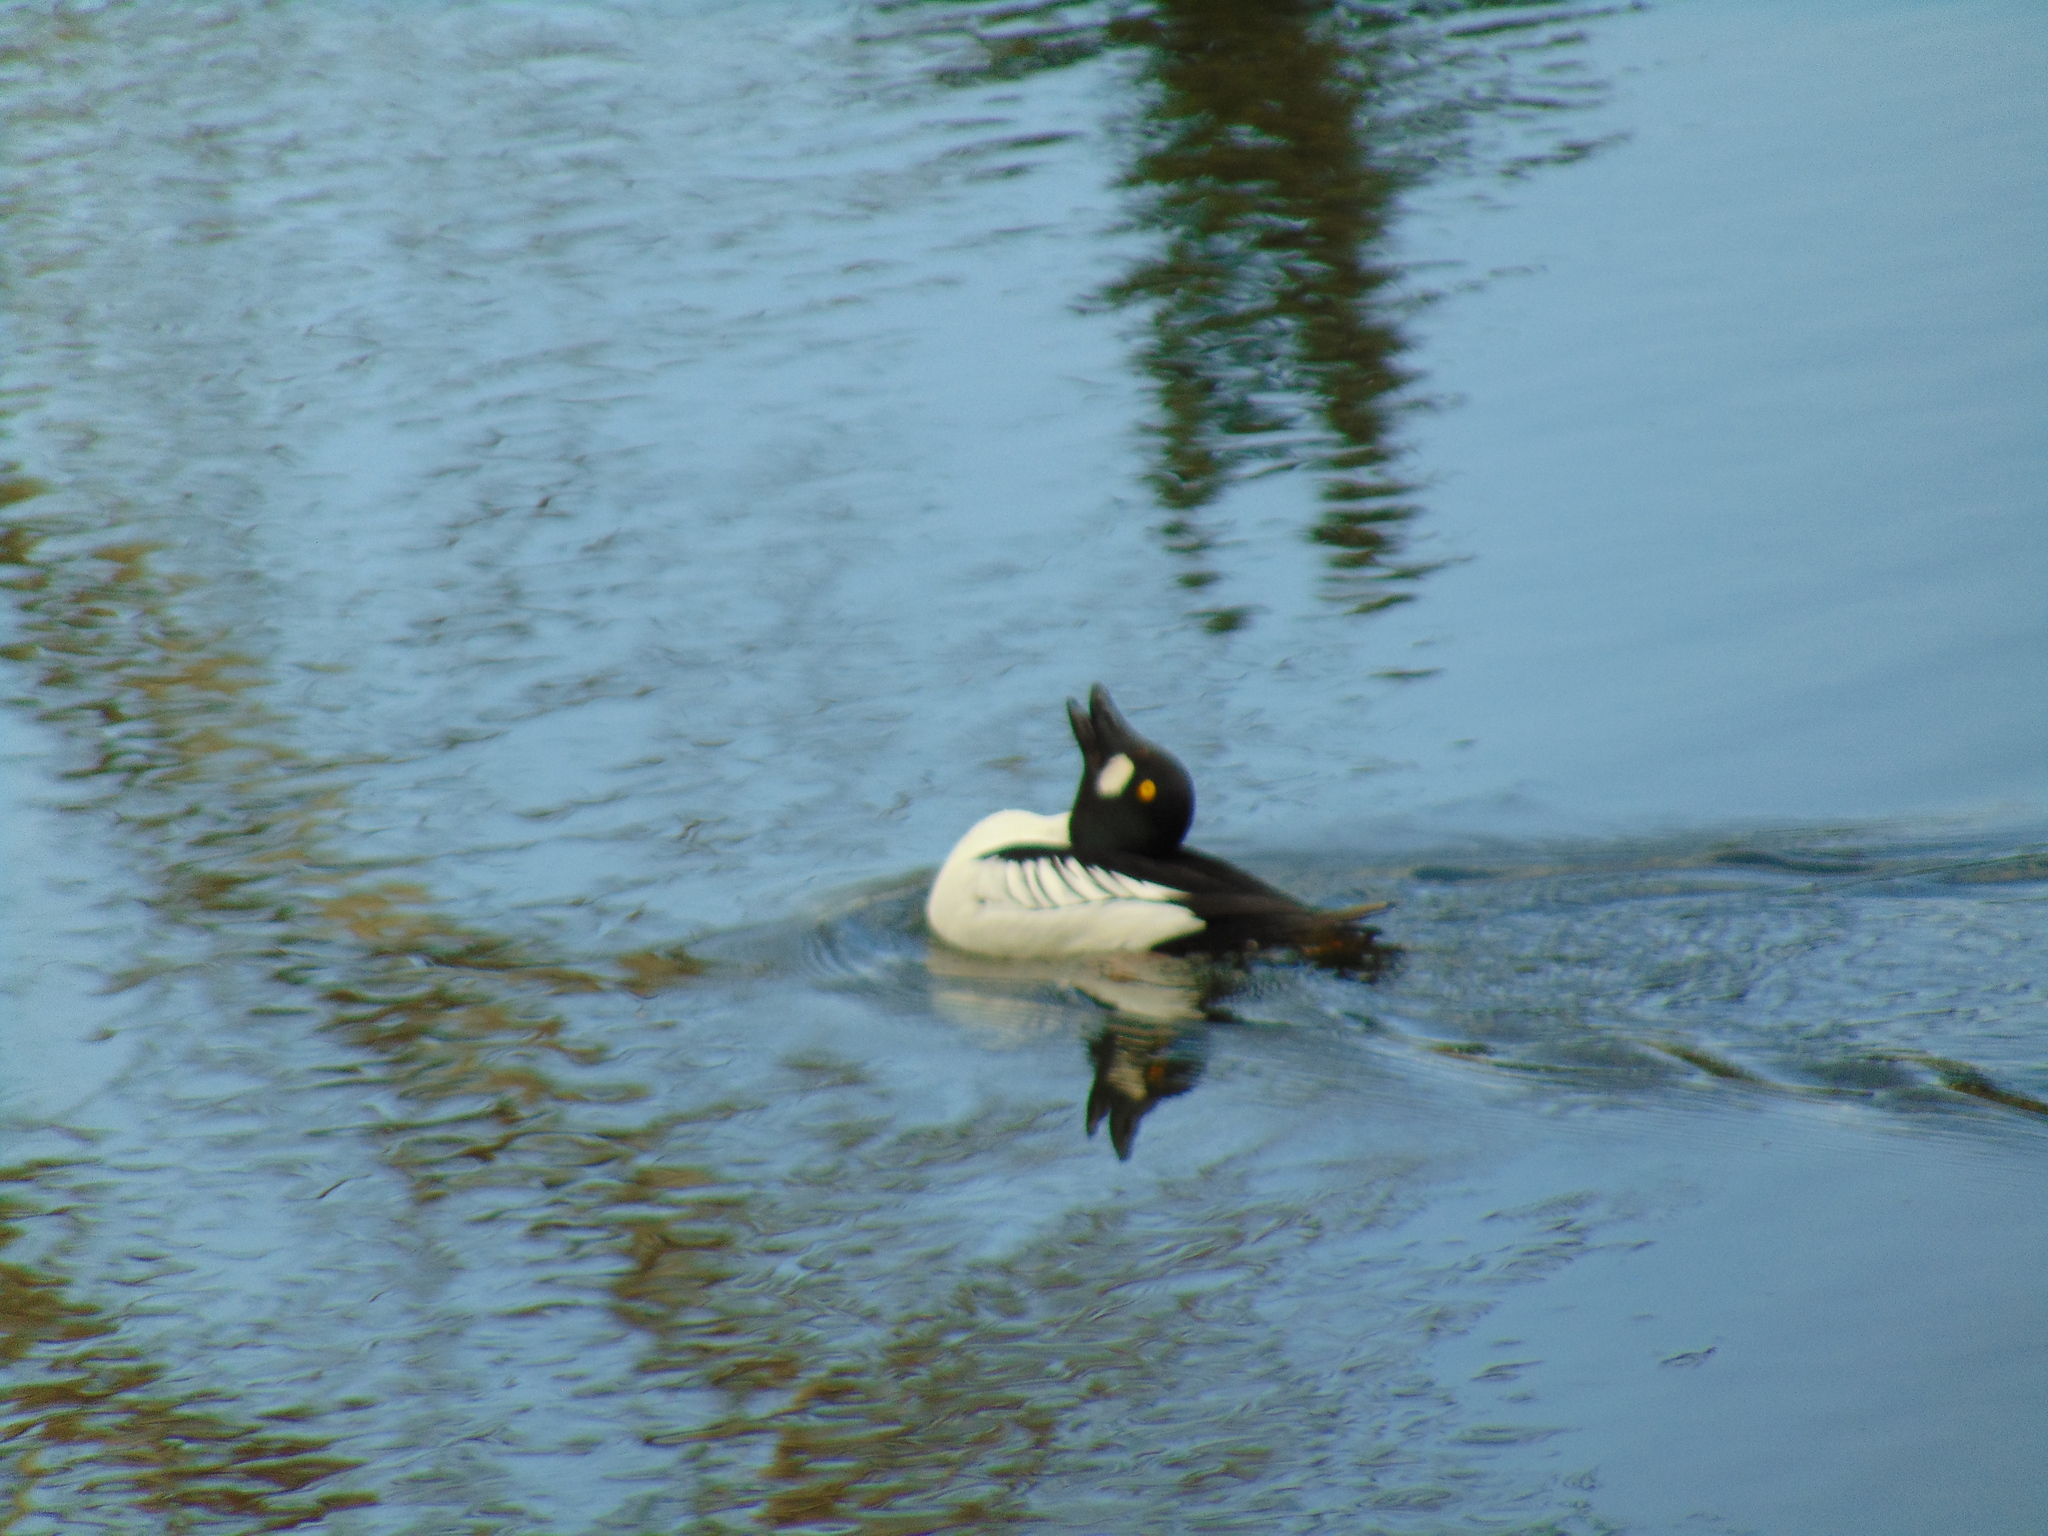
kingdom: Animalia
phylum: Chordata
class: Aves
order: Anseriformes
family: Anatidae
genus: Bucephala
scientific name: Bucephala clangula
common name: Common goldeneye
